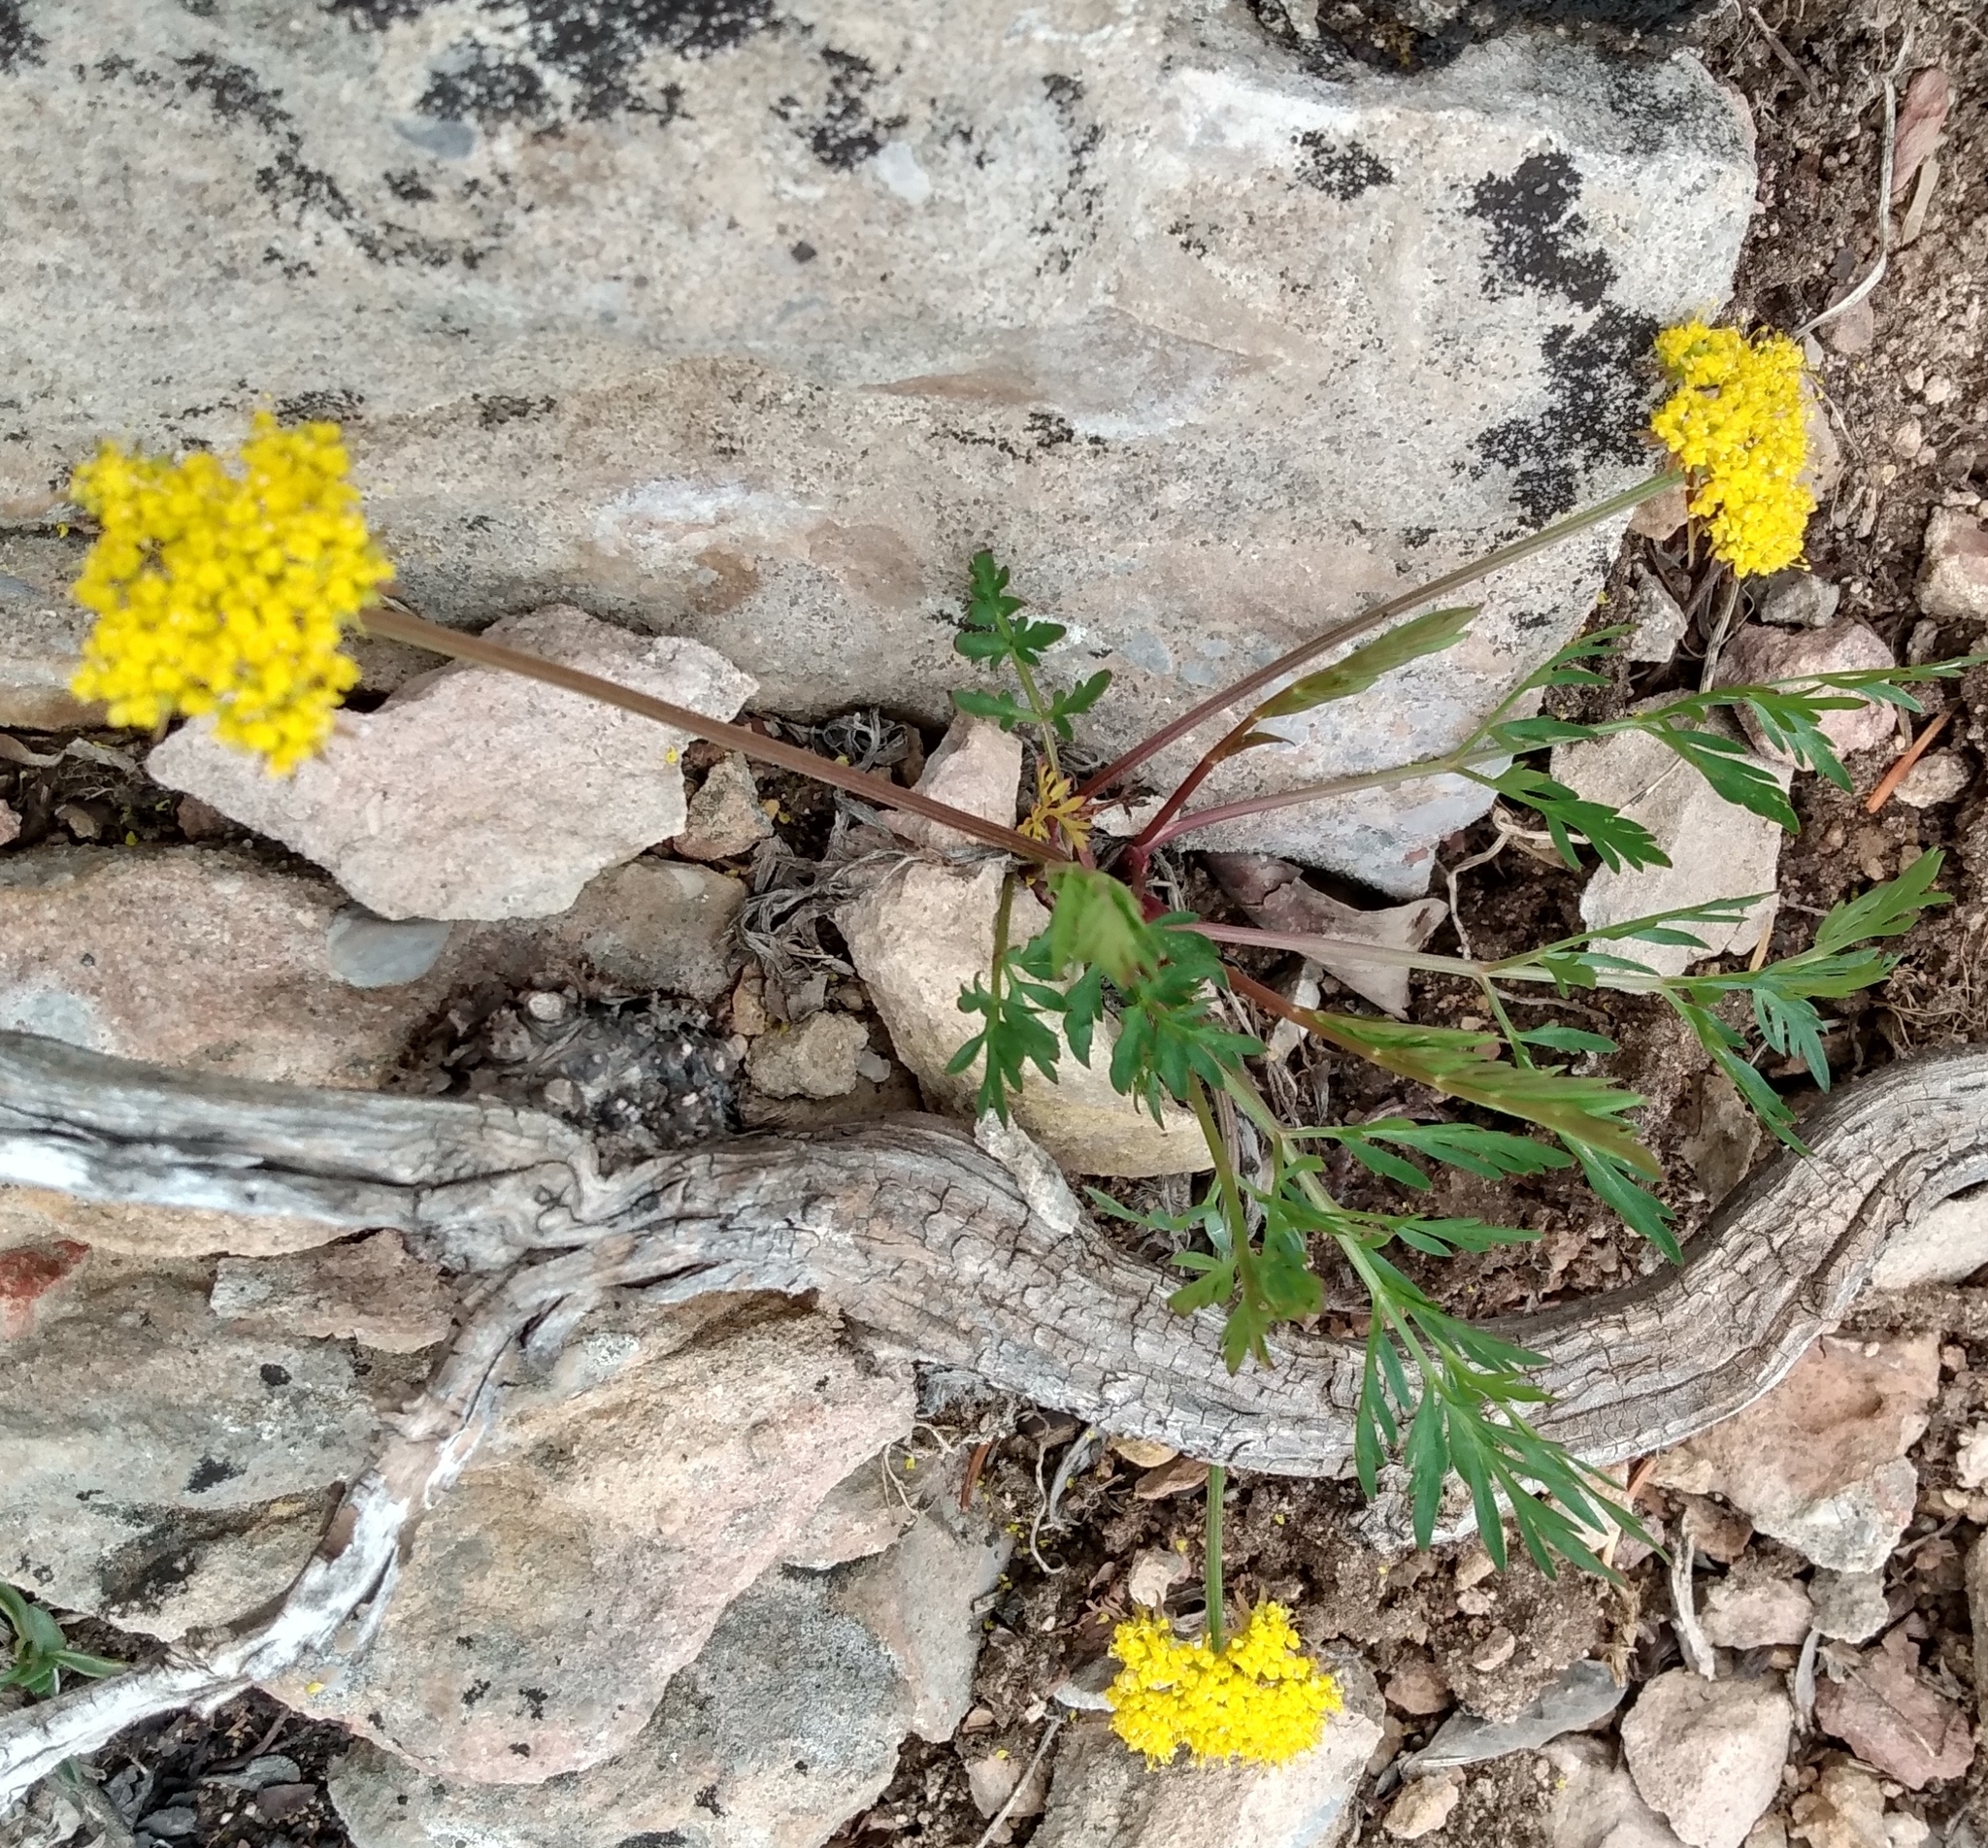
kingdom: Plantae
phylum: Tracheophyta
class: Magnoliopsida
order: Apiales
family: Apiaceae
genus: Cymopterus
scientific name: Cymopterus lemmonii
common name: Lemmon's spring-parsley
